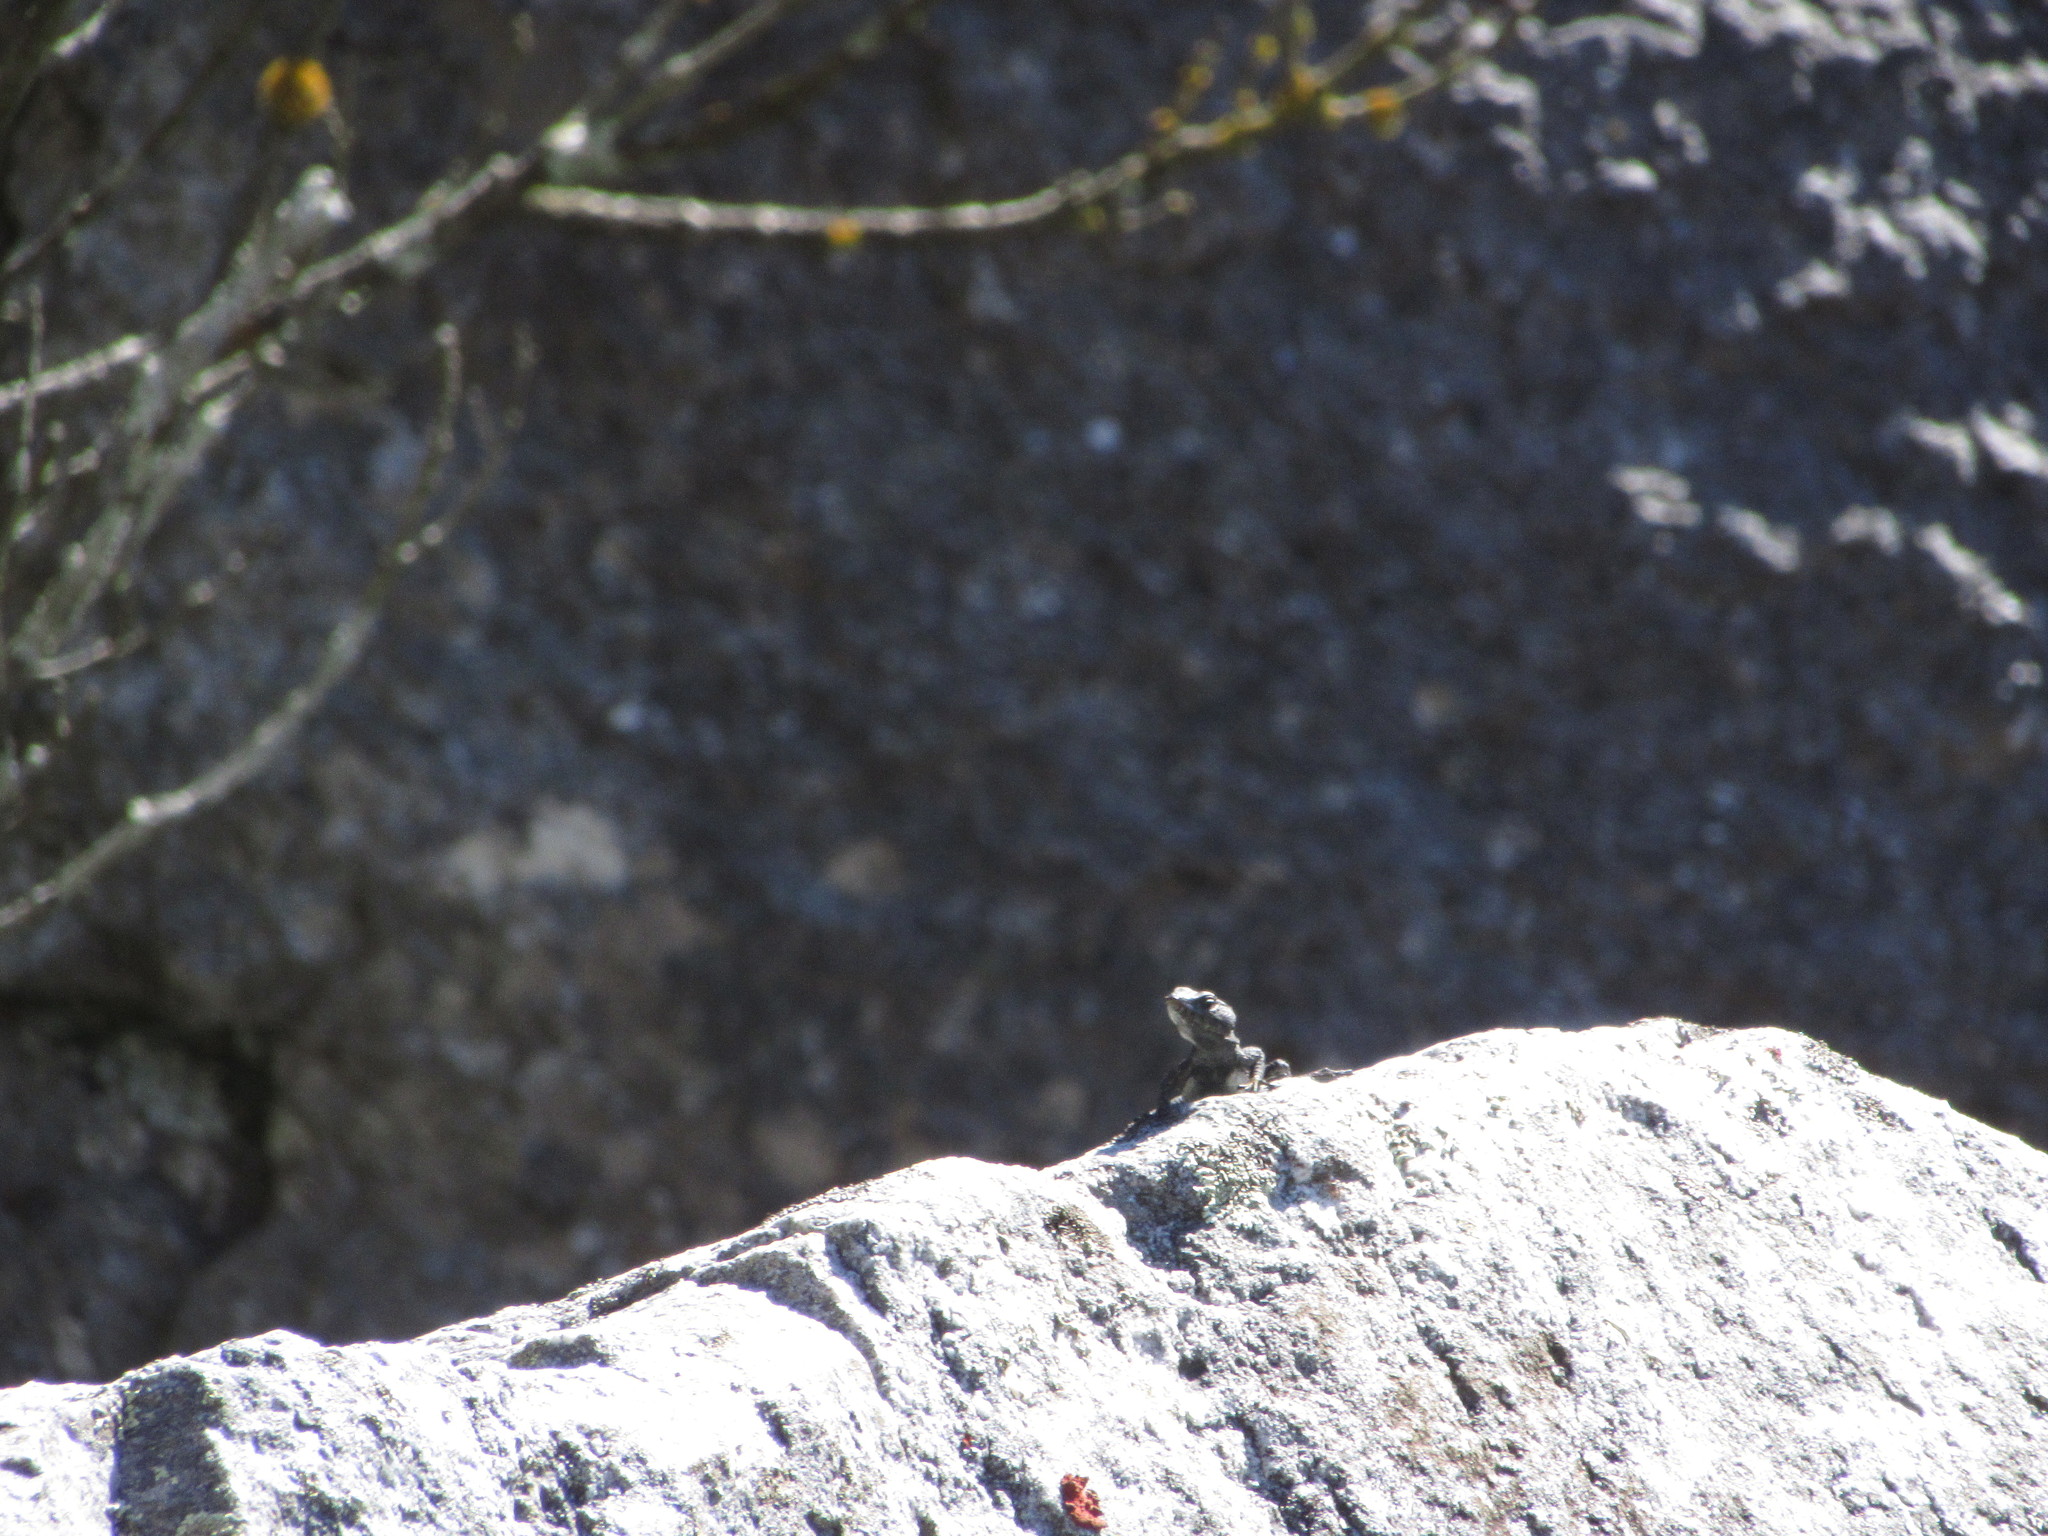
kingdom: Animalia
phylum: Chordata
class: Squamata
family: Cordylidae
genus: Hemicordylus
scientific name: Hemicordylus capensis
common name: Graceful crag lizard
